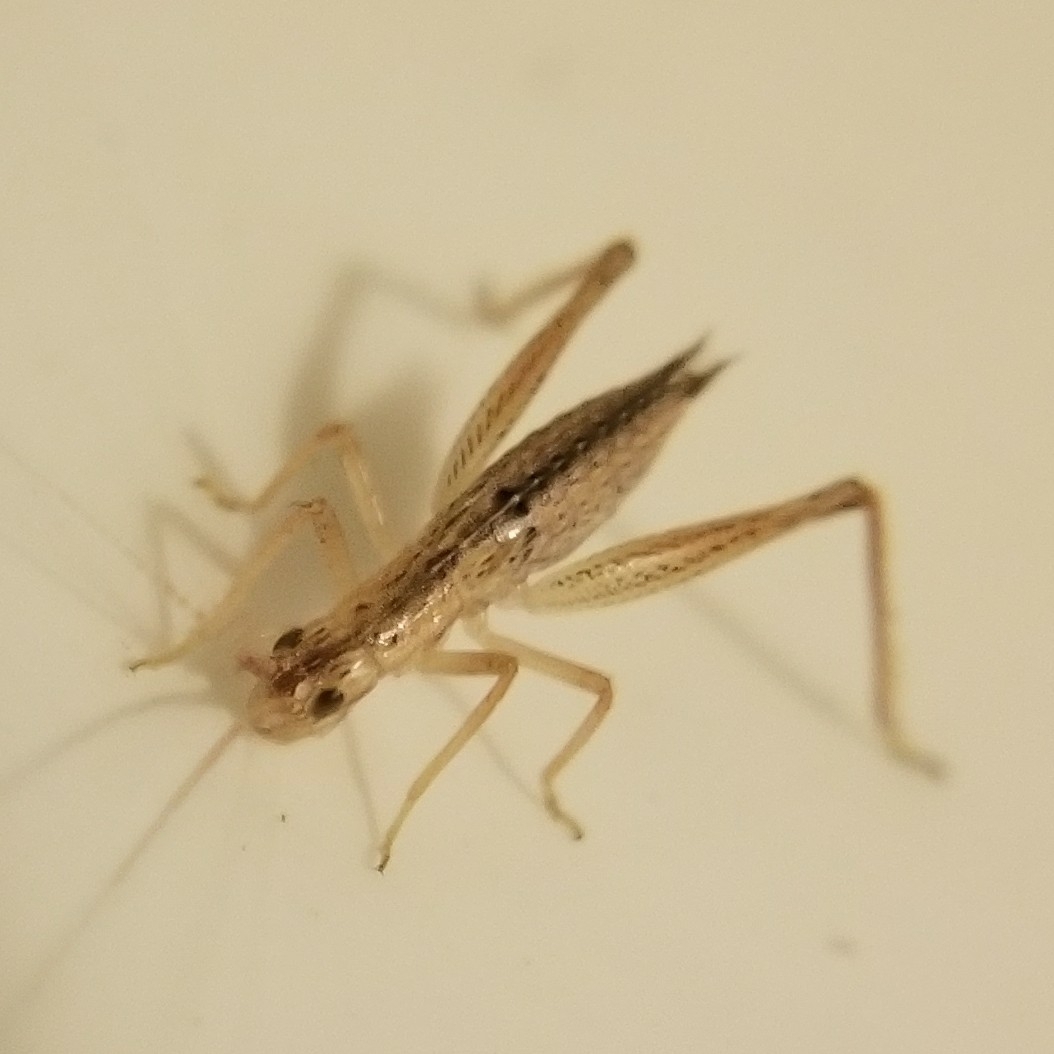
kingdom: Animalia
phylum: Arthropoda
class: Insecta
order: Orthoptera
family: Gryllidae
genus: Oecanthus
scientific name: Oecanthus
